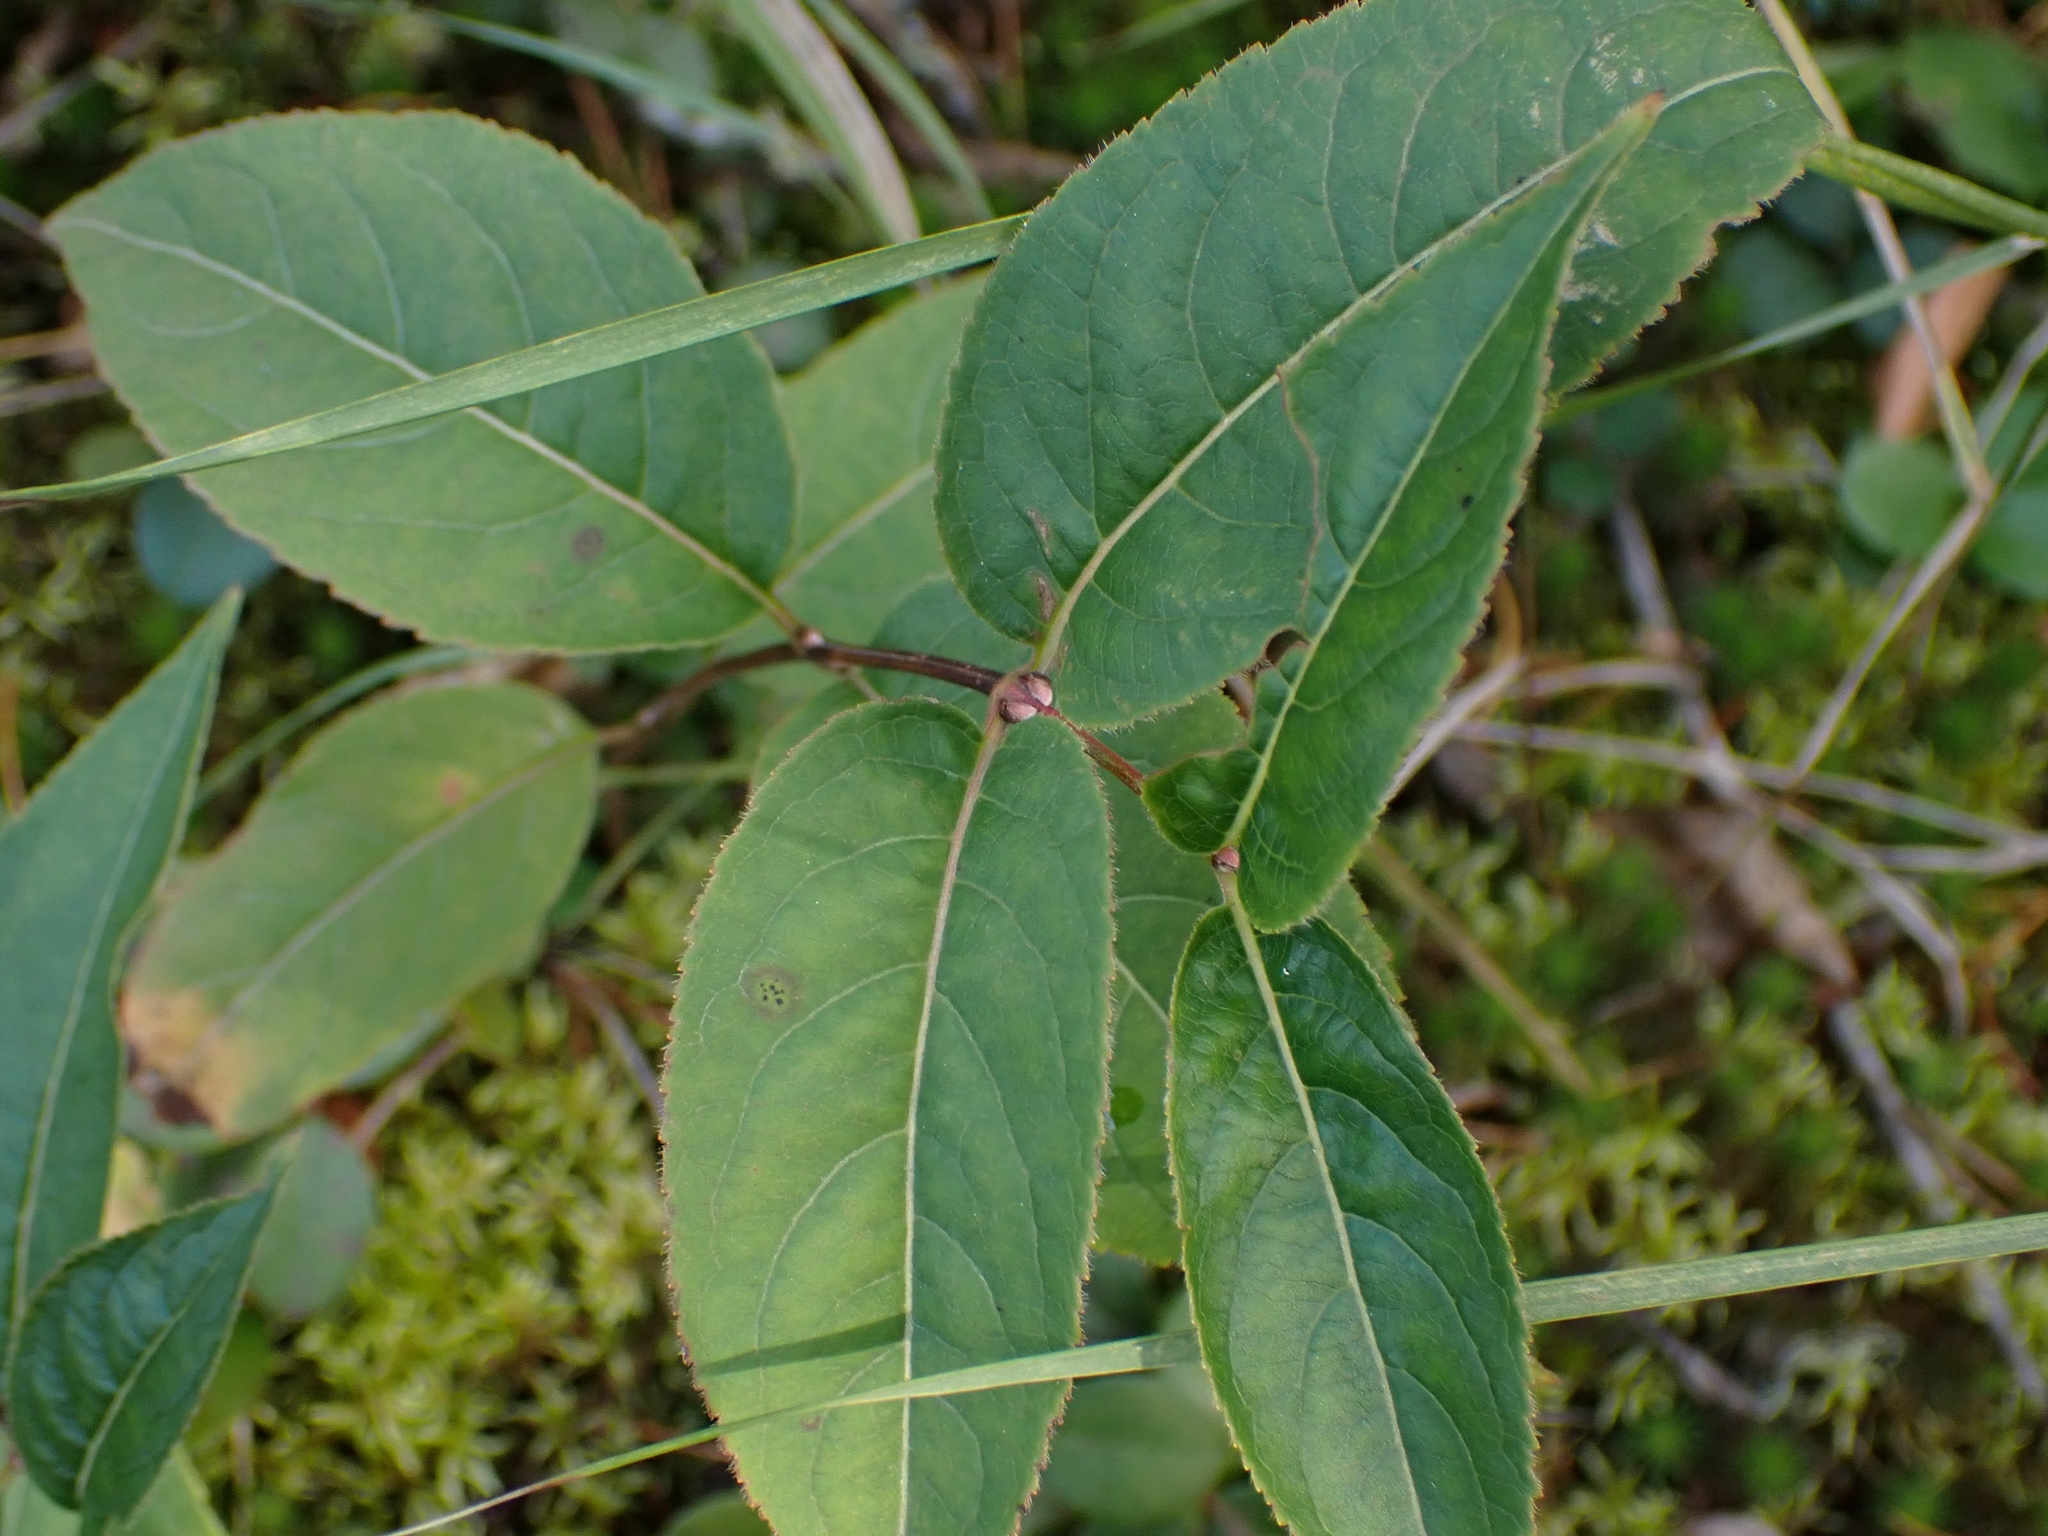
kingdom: Plantae
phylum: Tracheophyta
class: Magnoliopsida
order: Dipsacales
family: Caprifoliaceae
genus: Diervilla
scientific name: Diervilla lonicera
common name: Bush-honeysuckle
